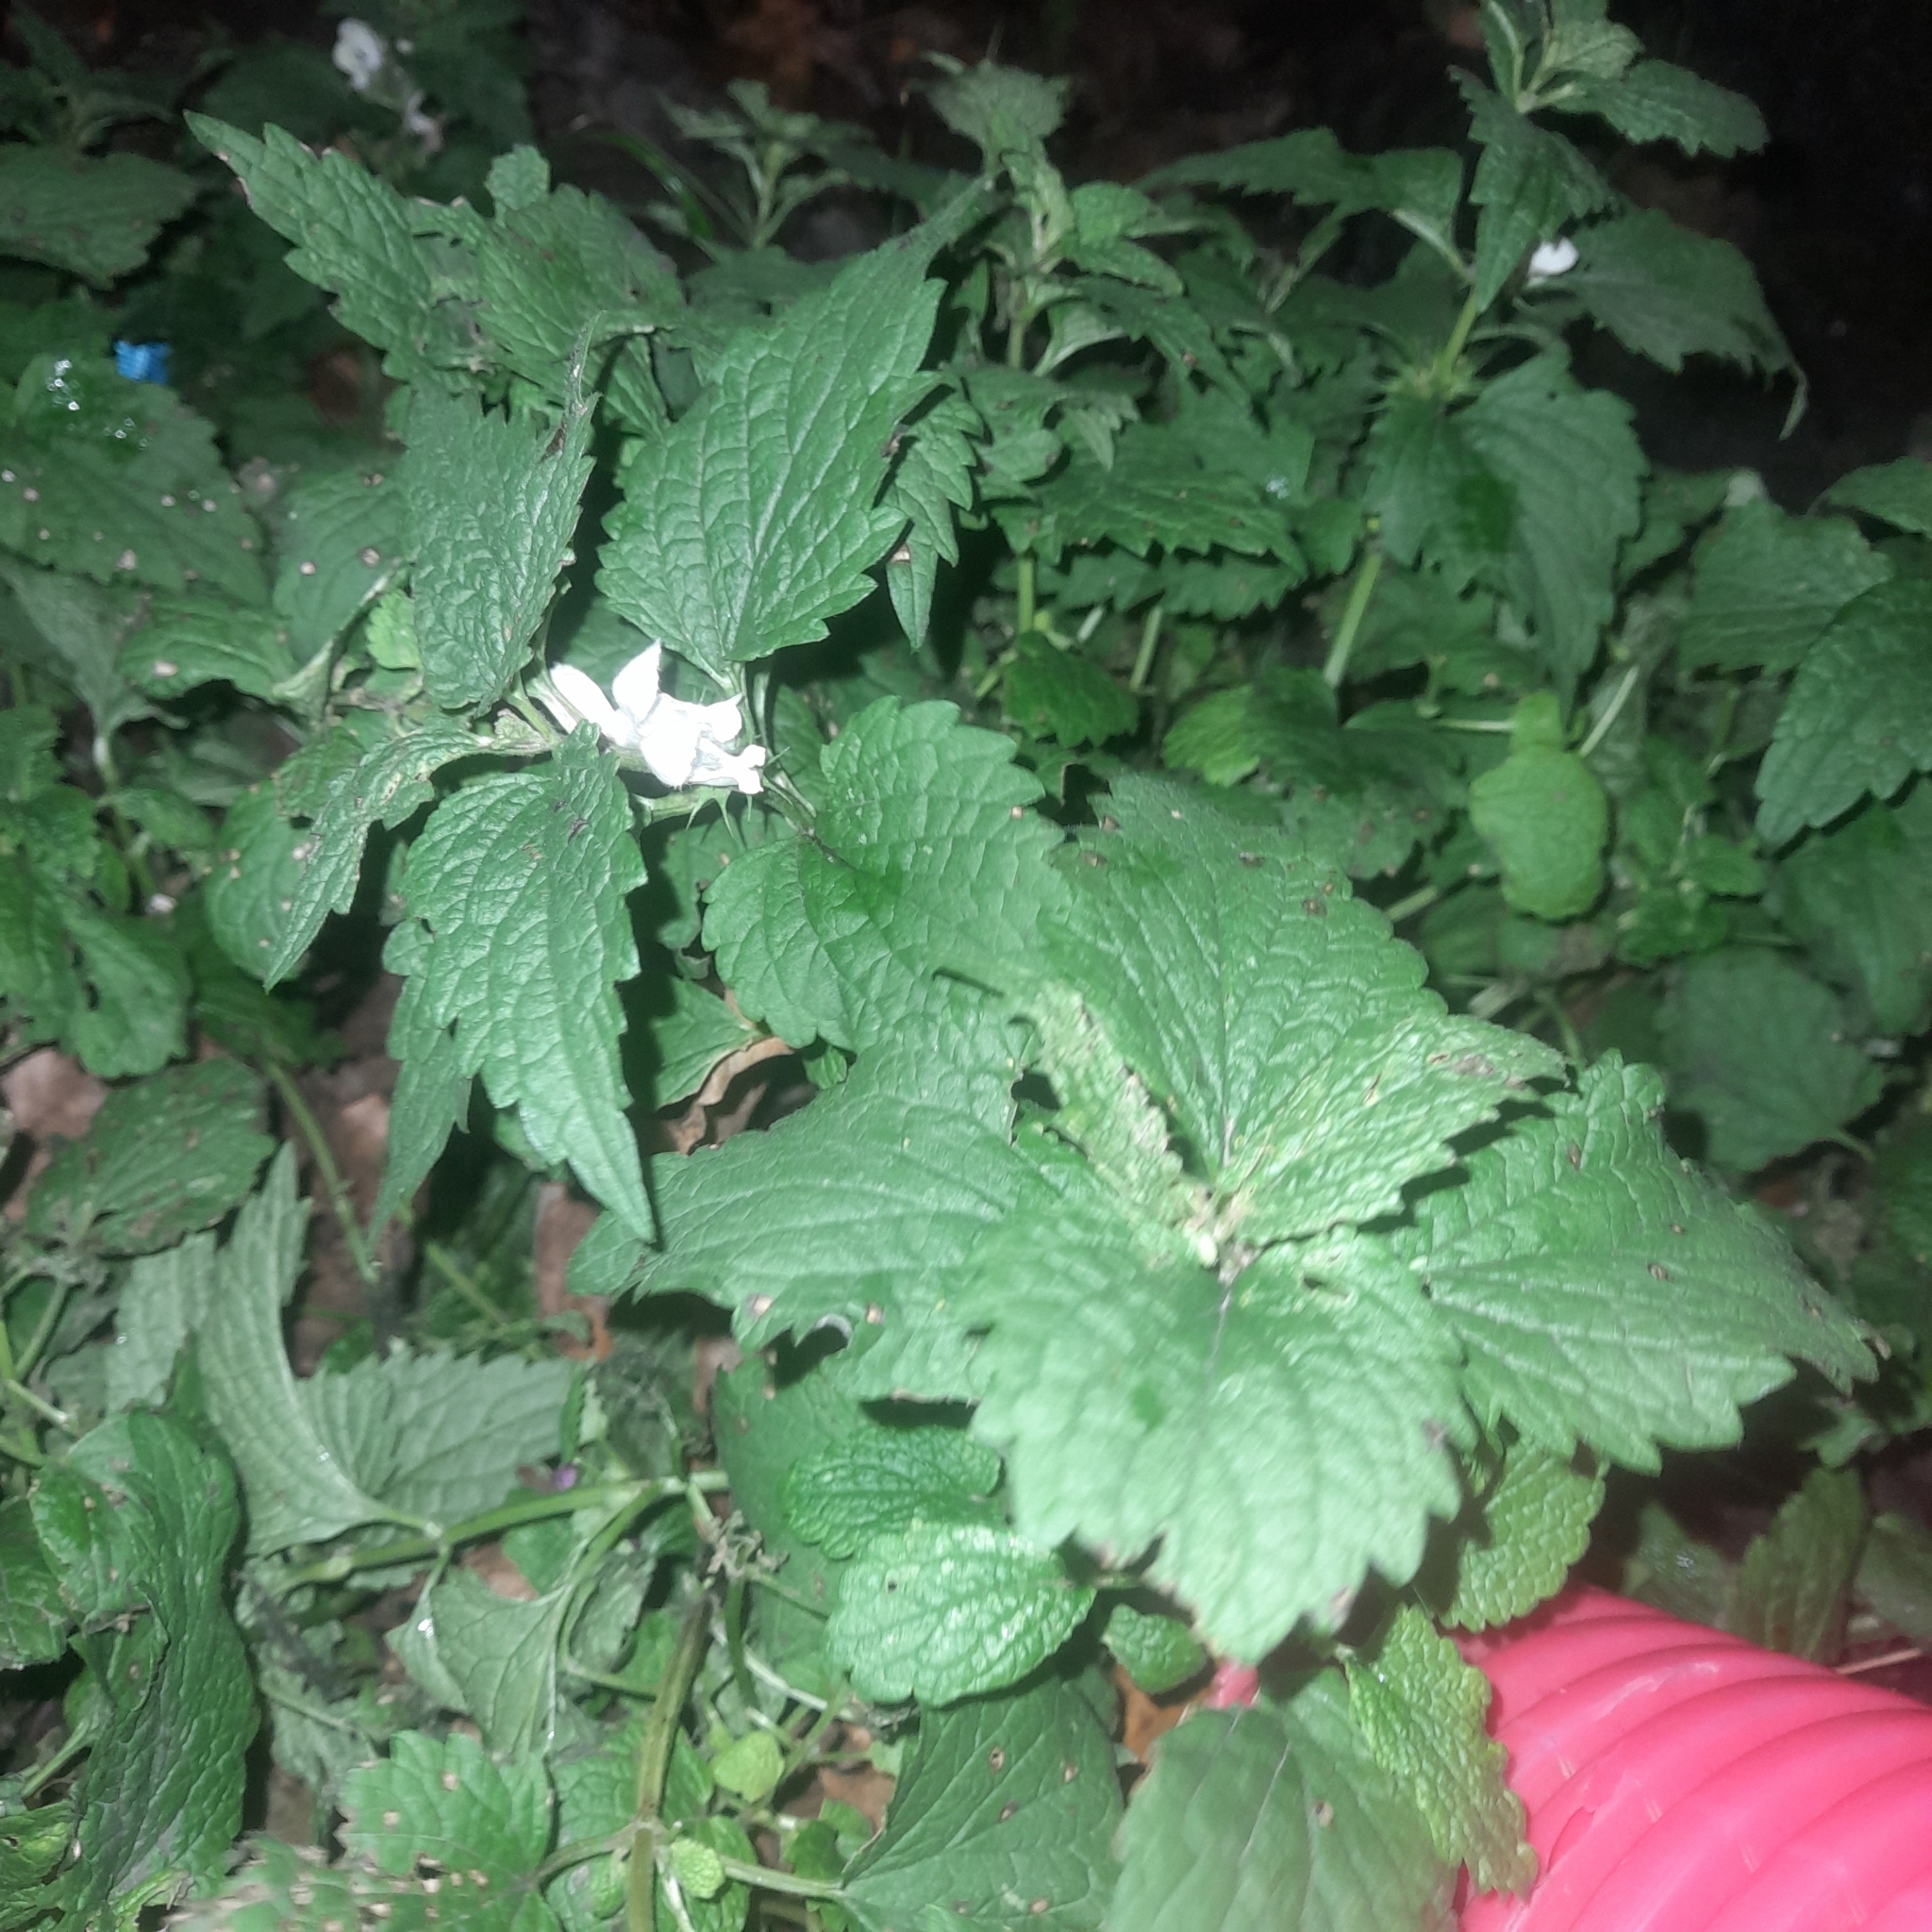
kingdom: Plantae
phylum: Tracheophyta
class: Magnoliopsida
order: Lamiales
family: Lamiaceae
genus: Lamium
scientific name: Lamium album
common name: White dead-nettle
